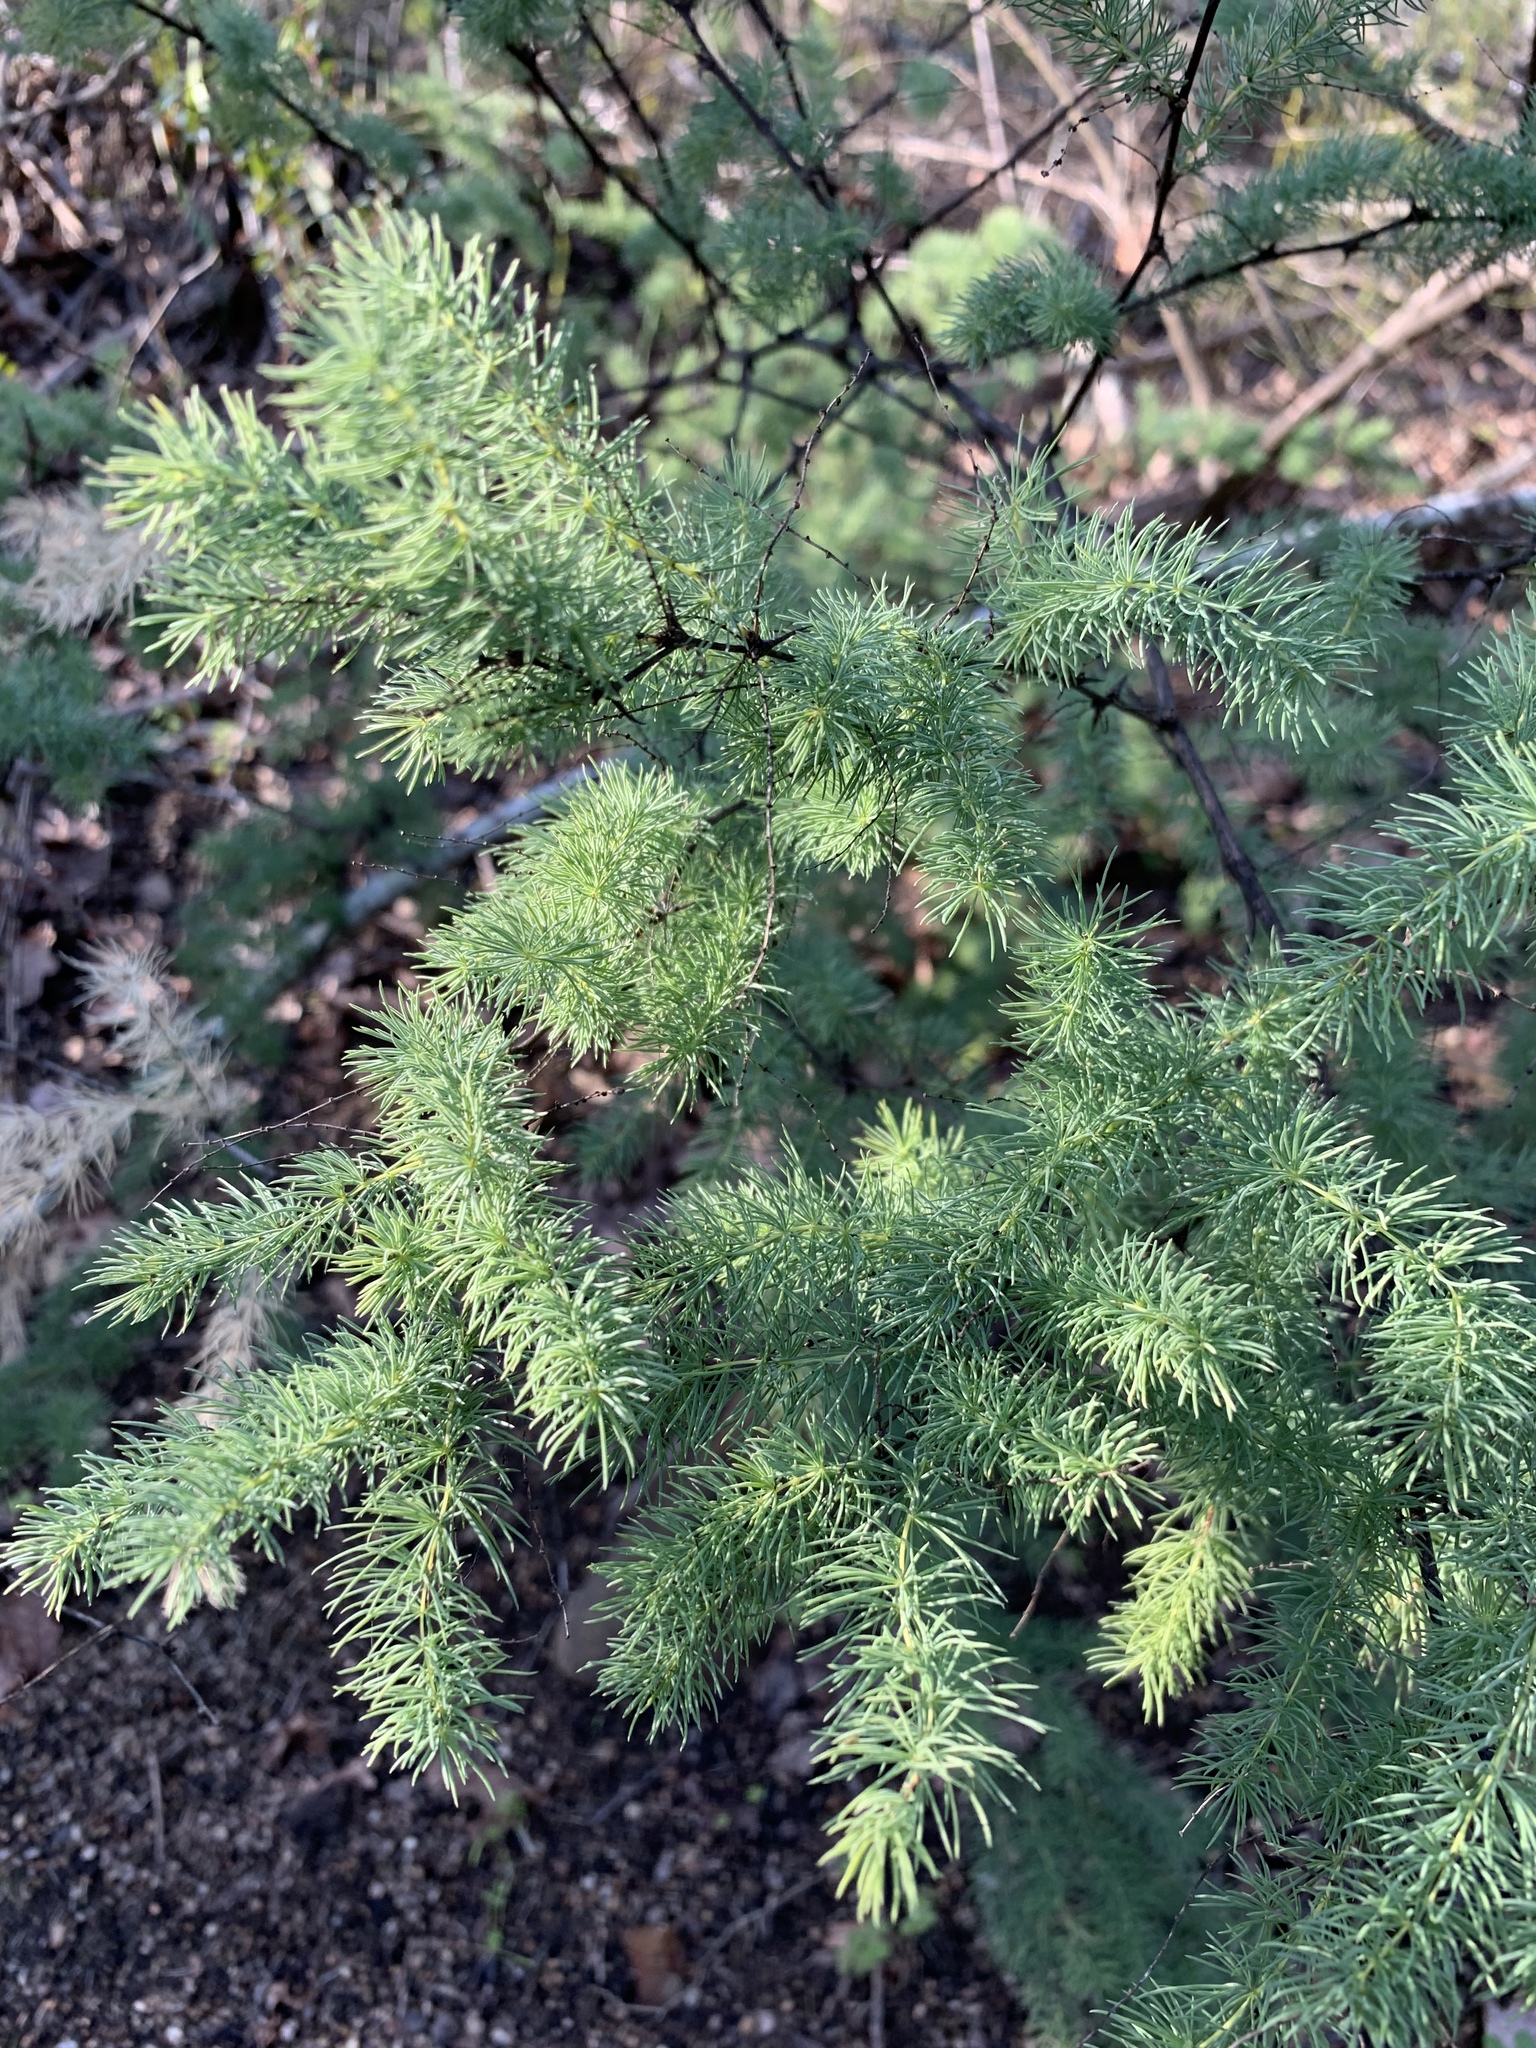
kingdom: Plantae
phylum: Tracheophyta
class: Liliopsida
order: Asparagales
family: Asparagaceae
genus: Asparagus
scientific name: Asparagus rubicundus
